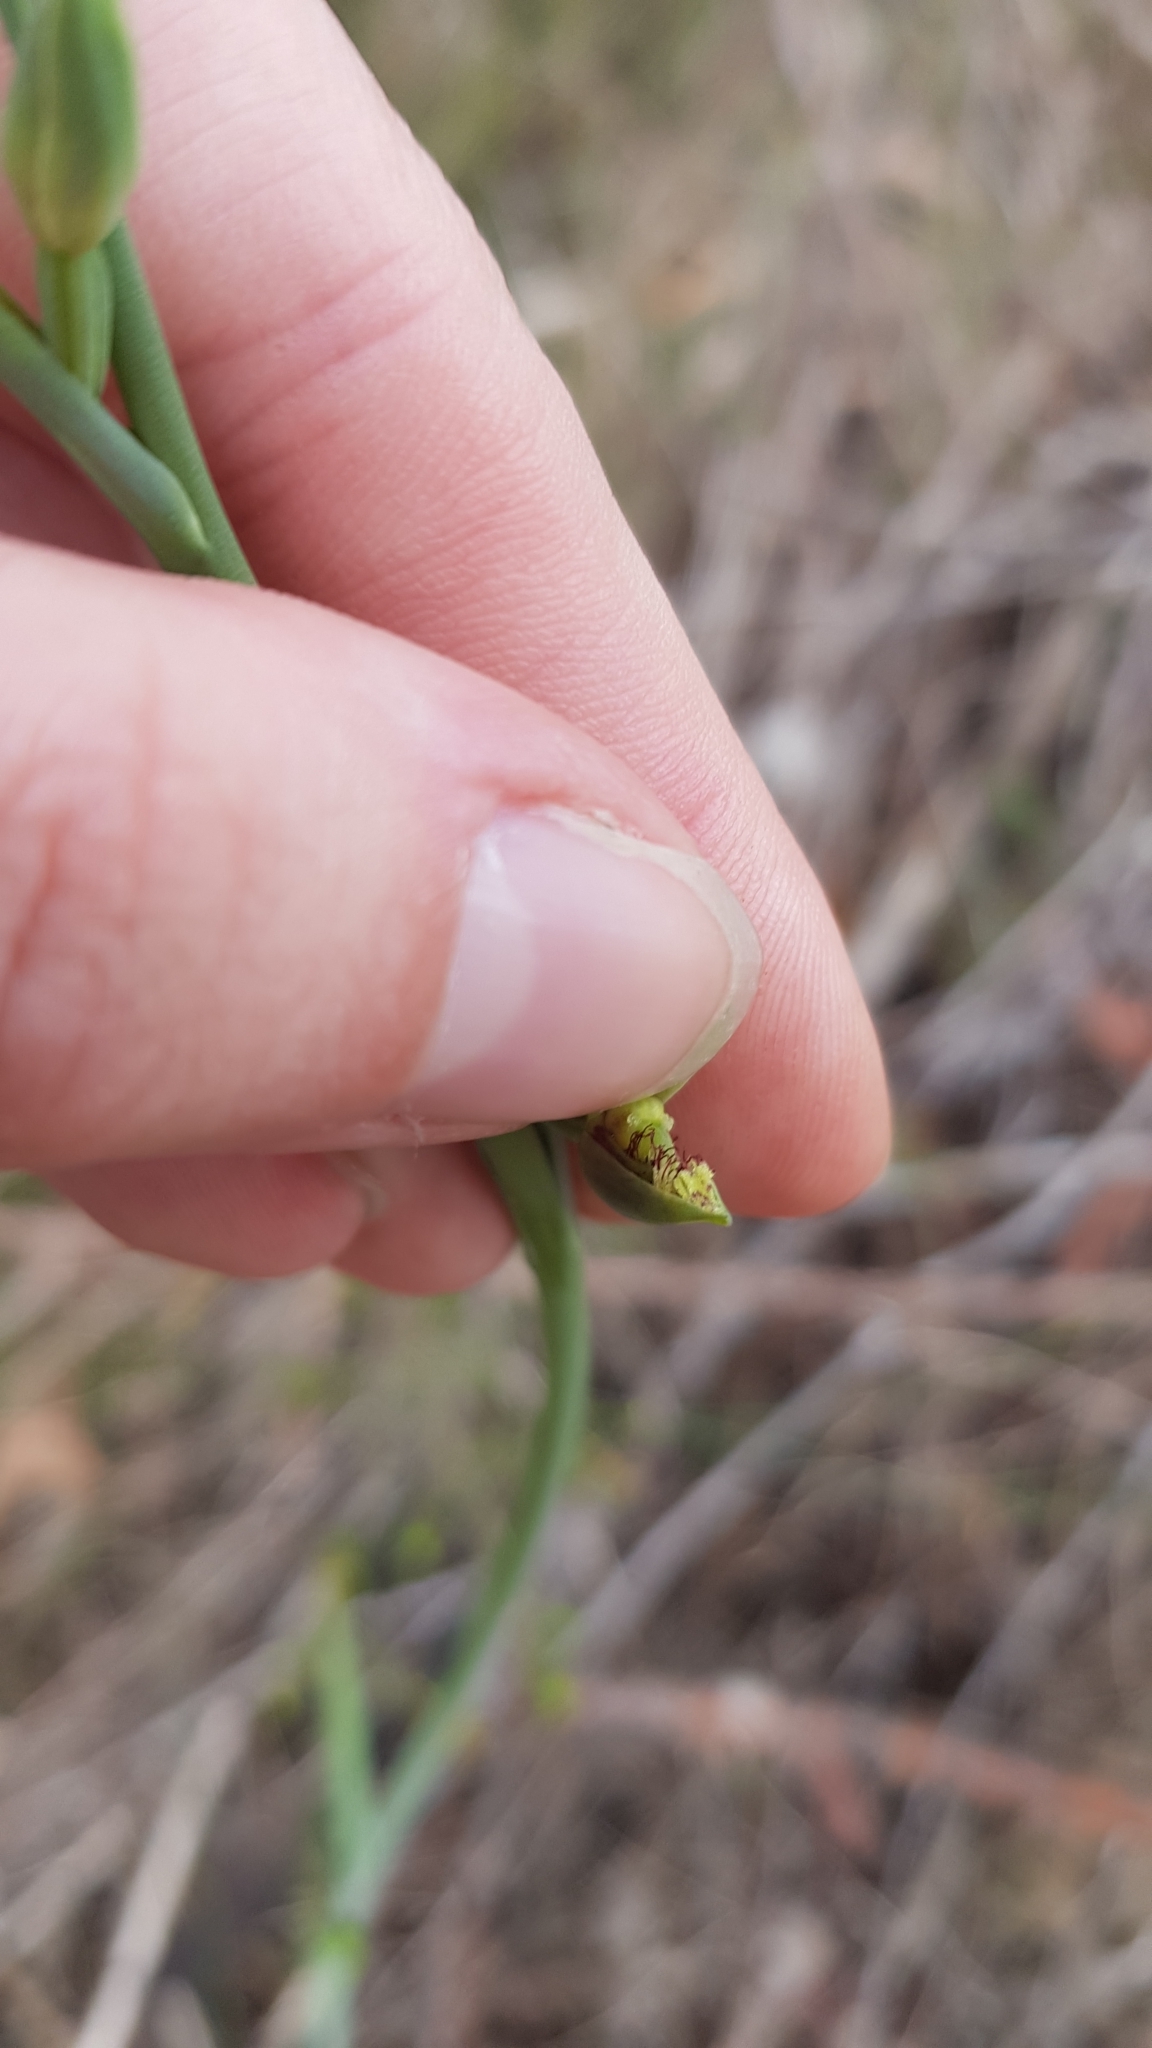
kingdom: Plantae
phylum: Tracheophyta
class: Liliopsida
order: Asparagales
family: Orchidaceae
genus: Calochilus
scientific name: Calochilus campestris
